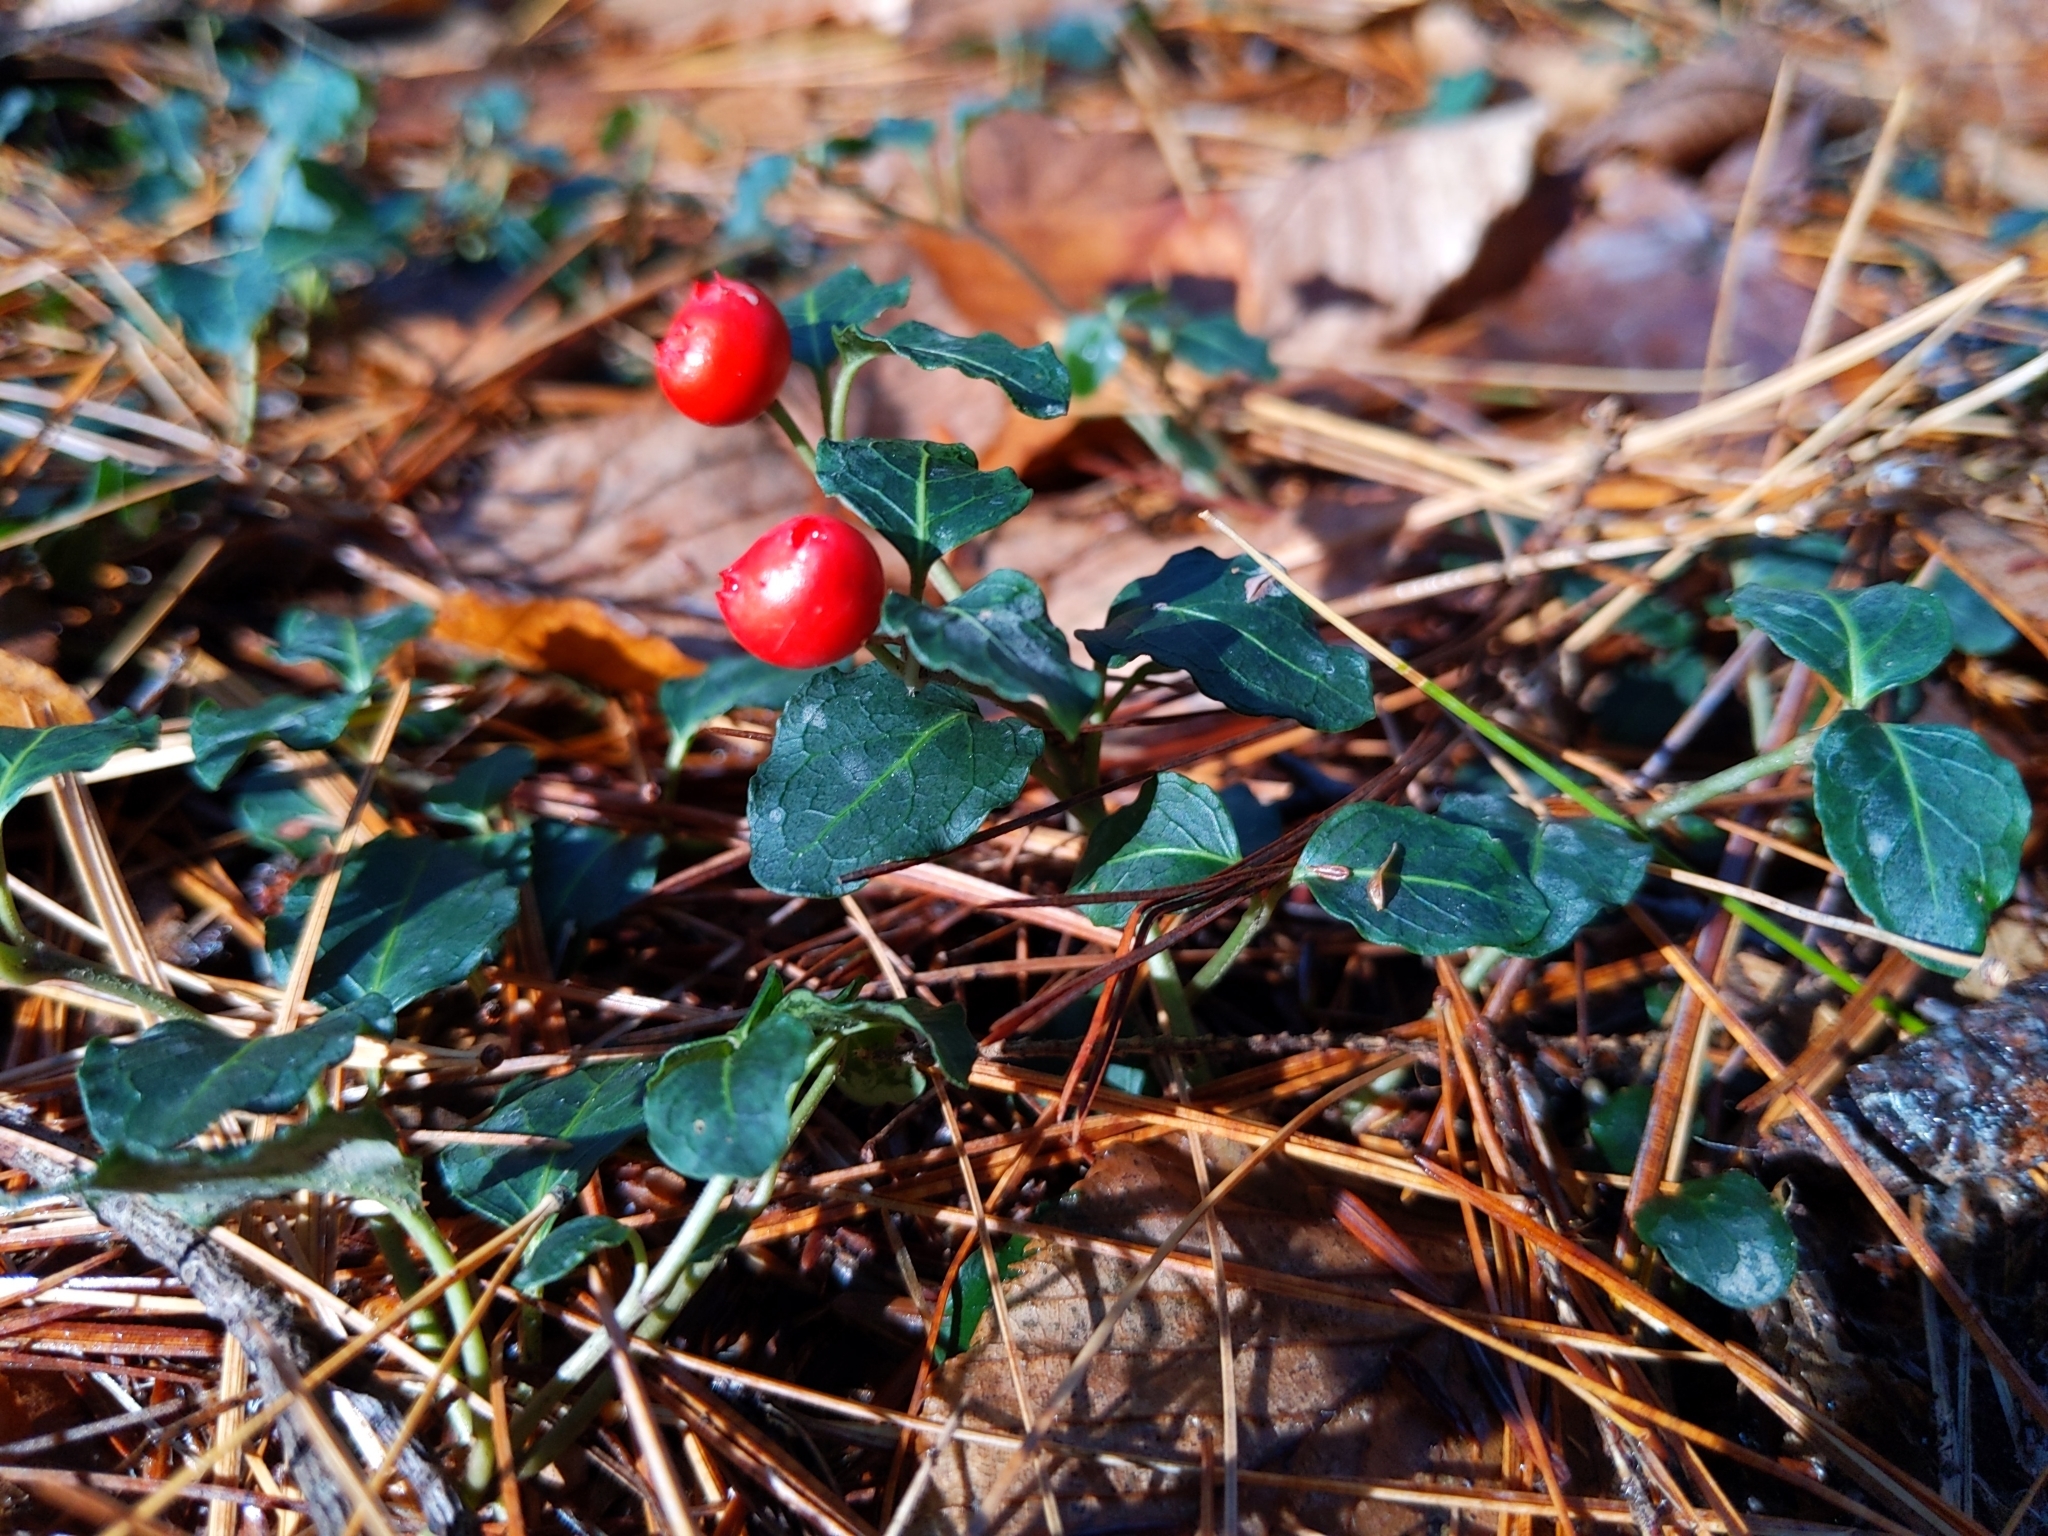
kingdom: Plantae
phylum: Tracheophyta
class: Magnoliopsida
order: Gentianales
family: Rubiaceae
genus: Mitchella
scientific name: Mitchella repens
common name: Partridge-berry
